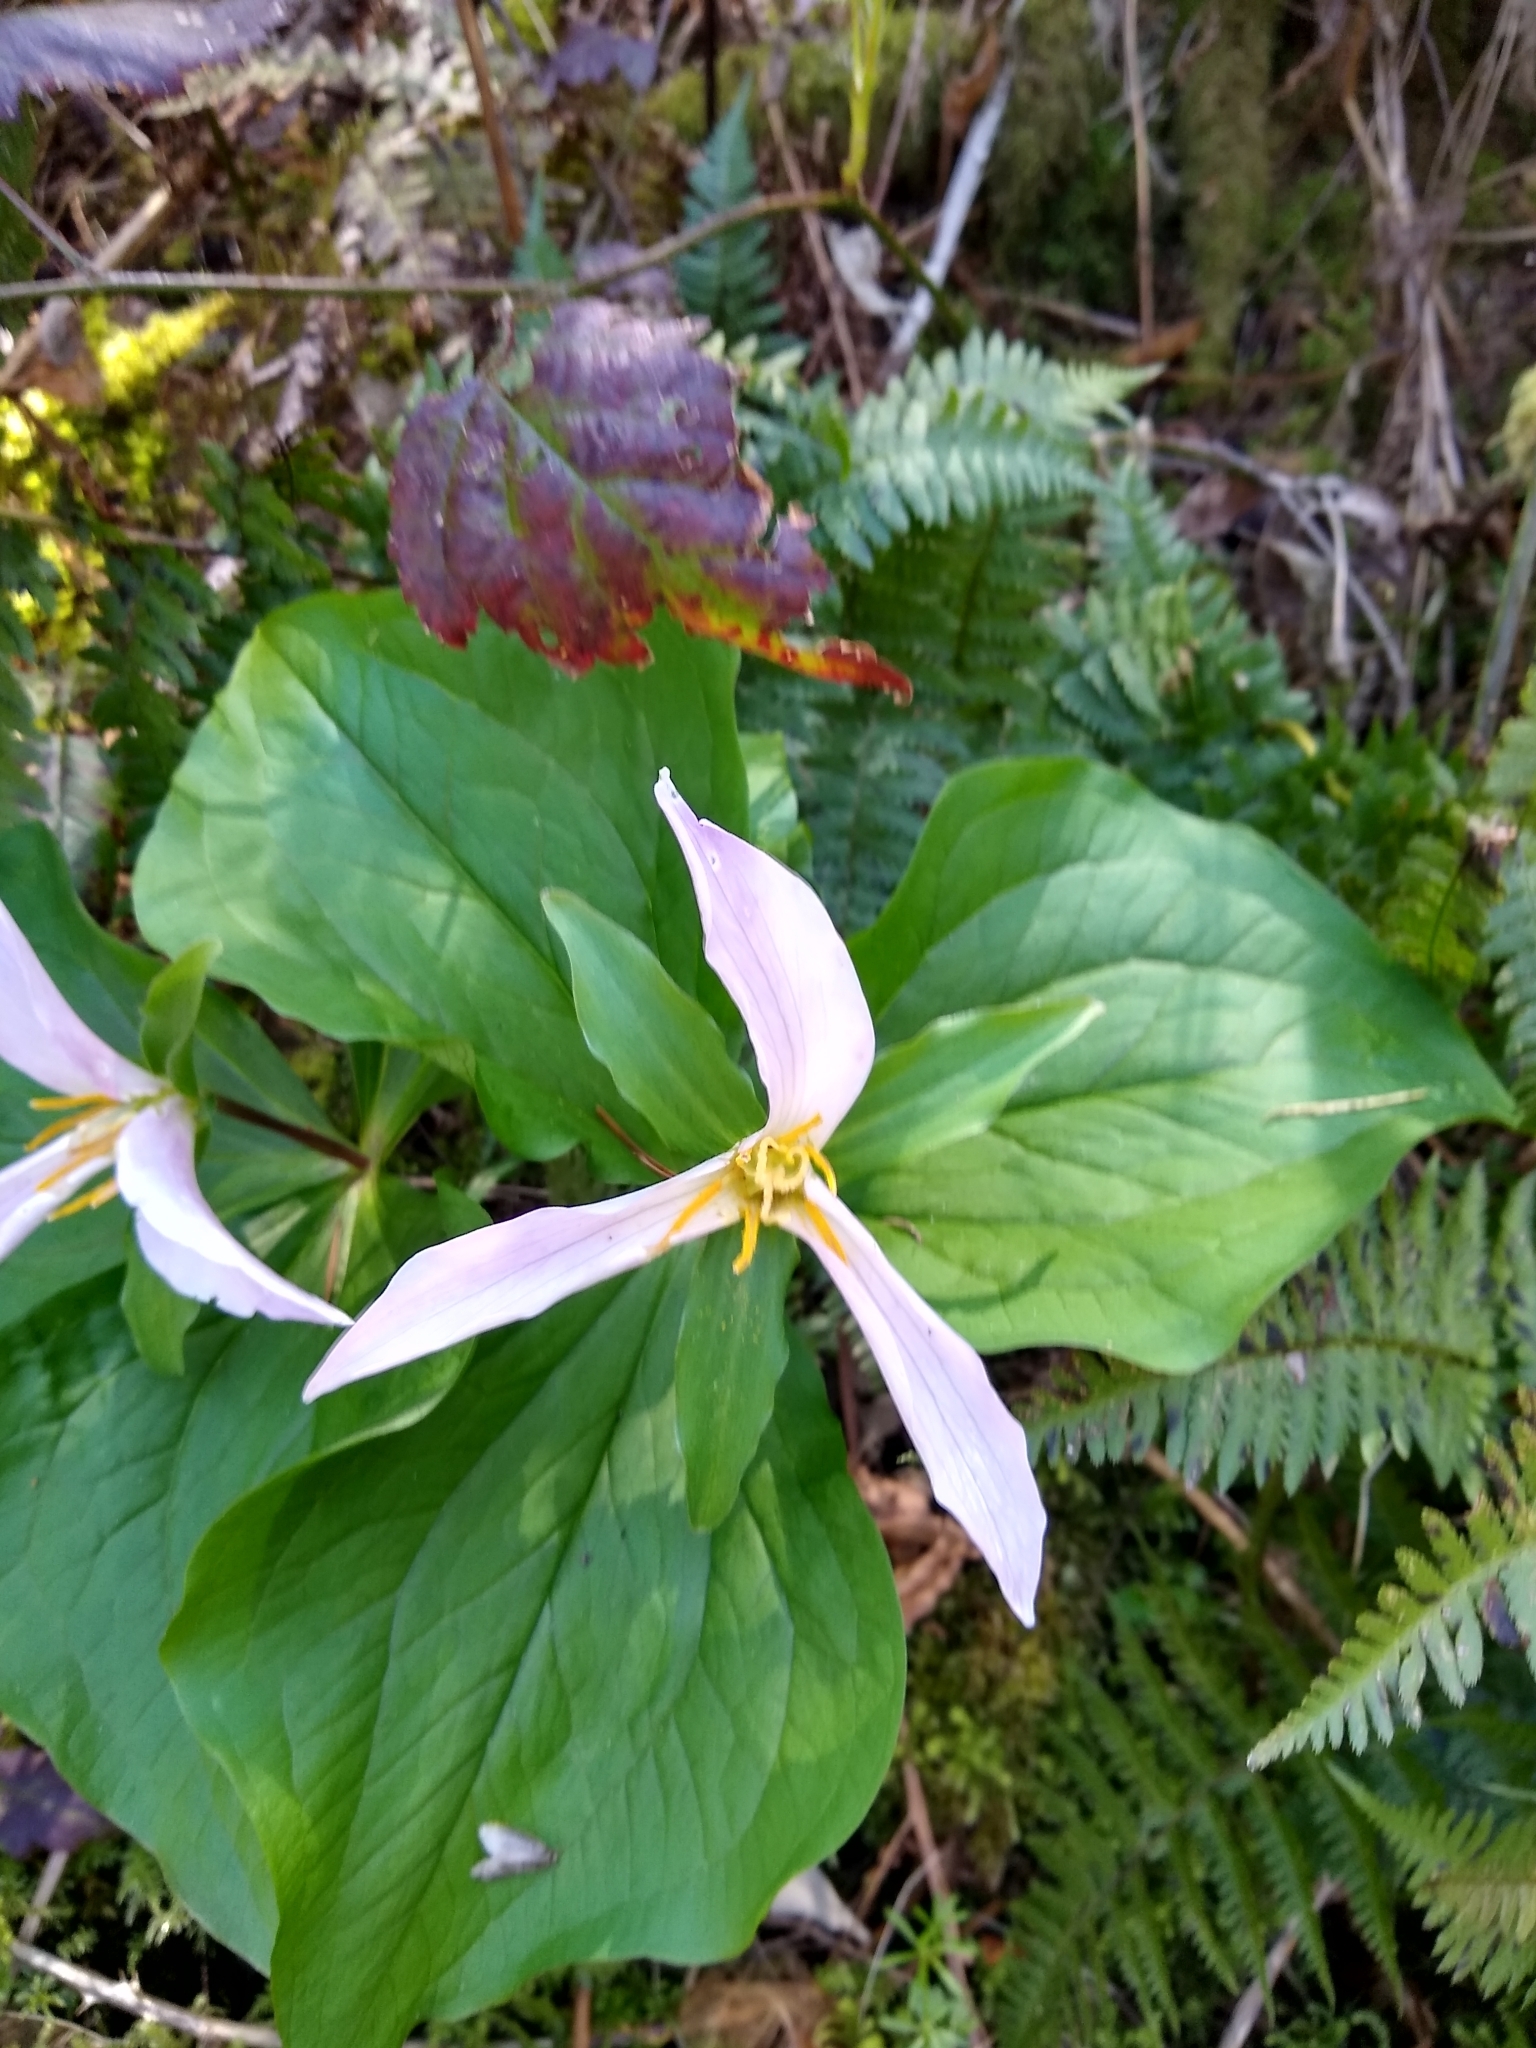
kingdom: Plantae
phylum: Tracheophyta
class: Liliopsida
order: Liliales
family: Melanthiaceae
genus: Trillium
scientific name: Trillium ovatum
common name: Pacific trillium
